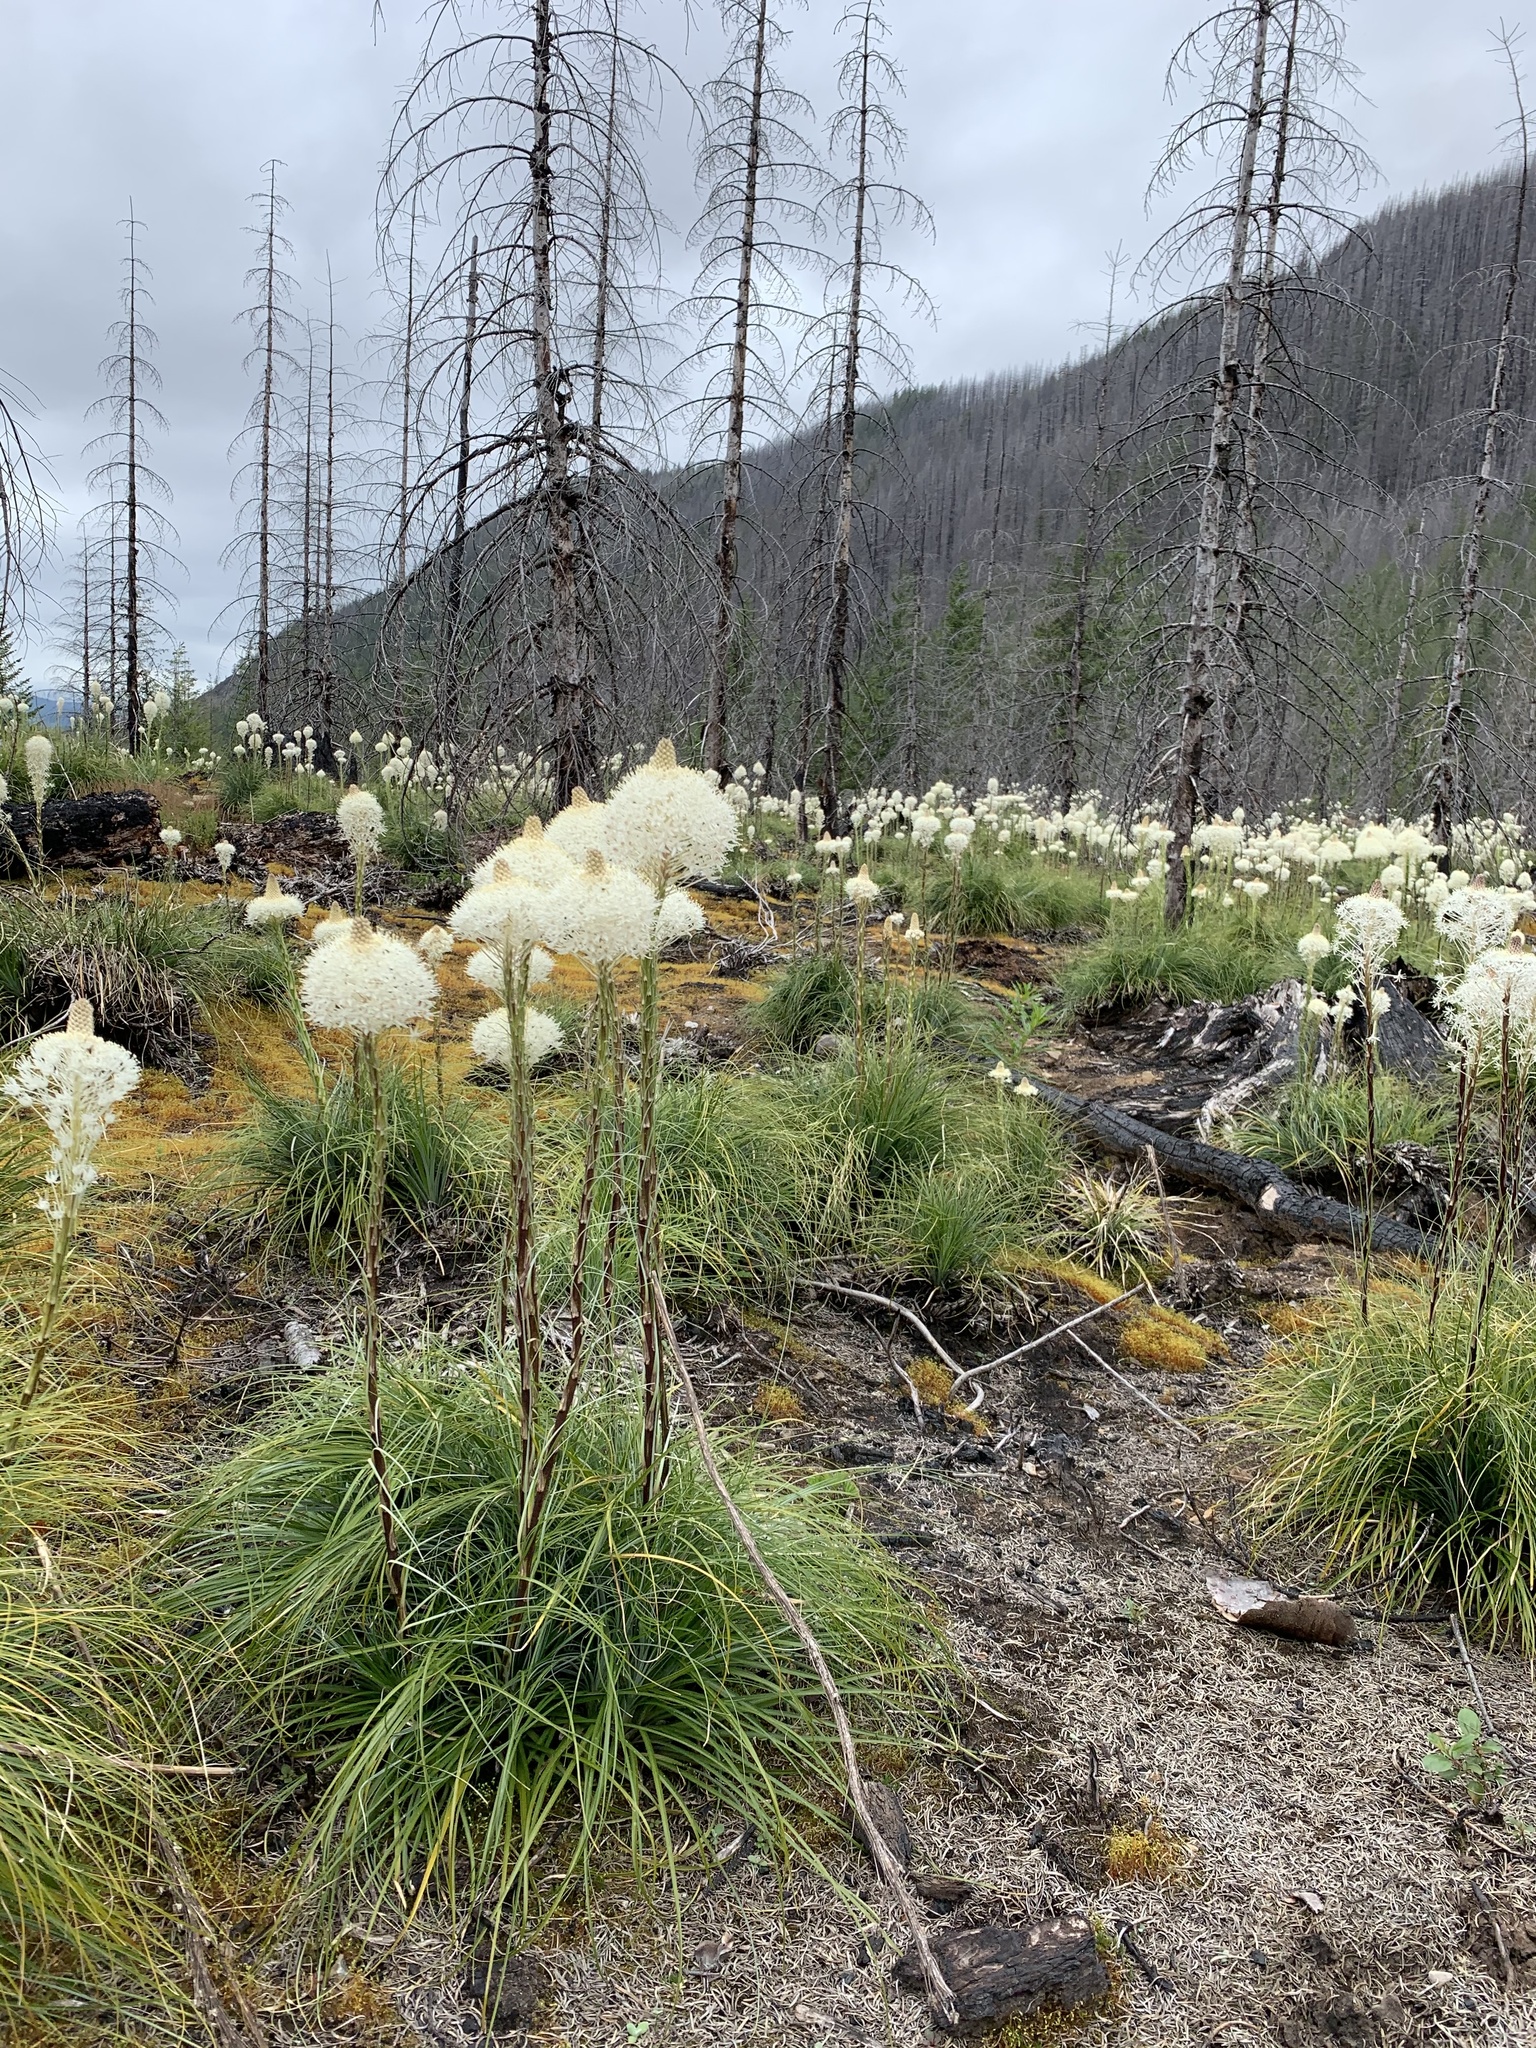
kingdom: Plantae
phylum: Tracheophyta
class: Liliopsida
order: Liliales
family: Melanthiaceae
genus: Xerophyllum
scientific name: Xerophyllum tenax
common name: Bear-grass
